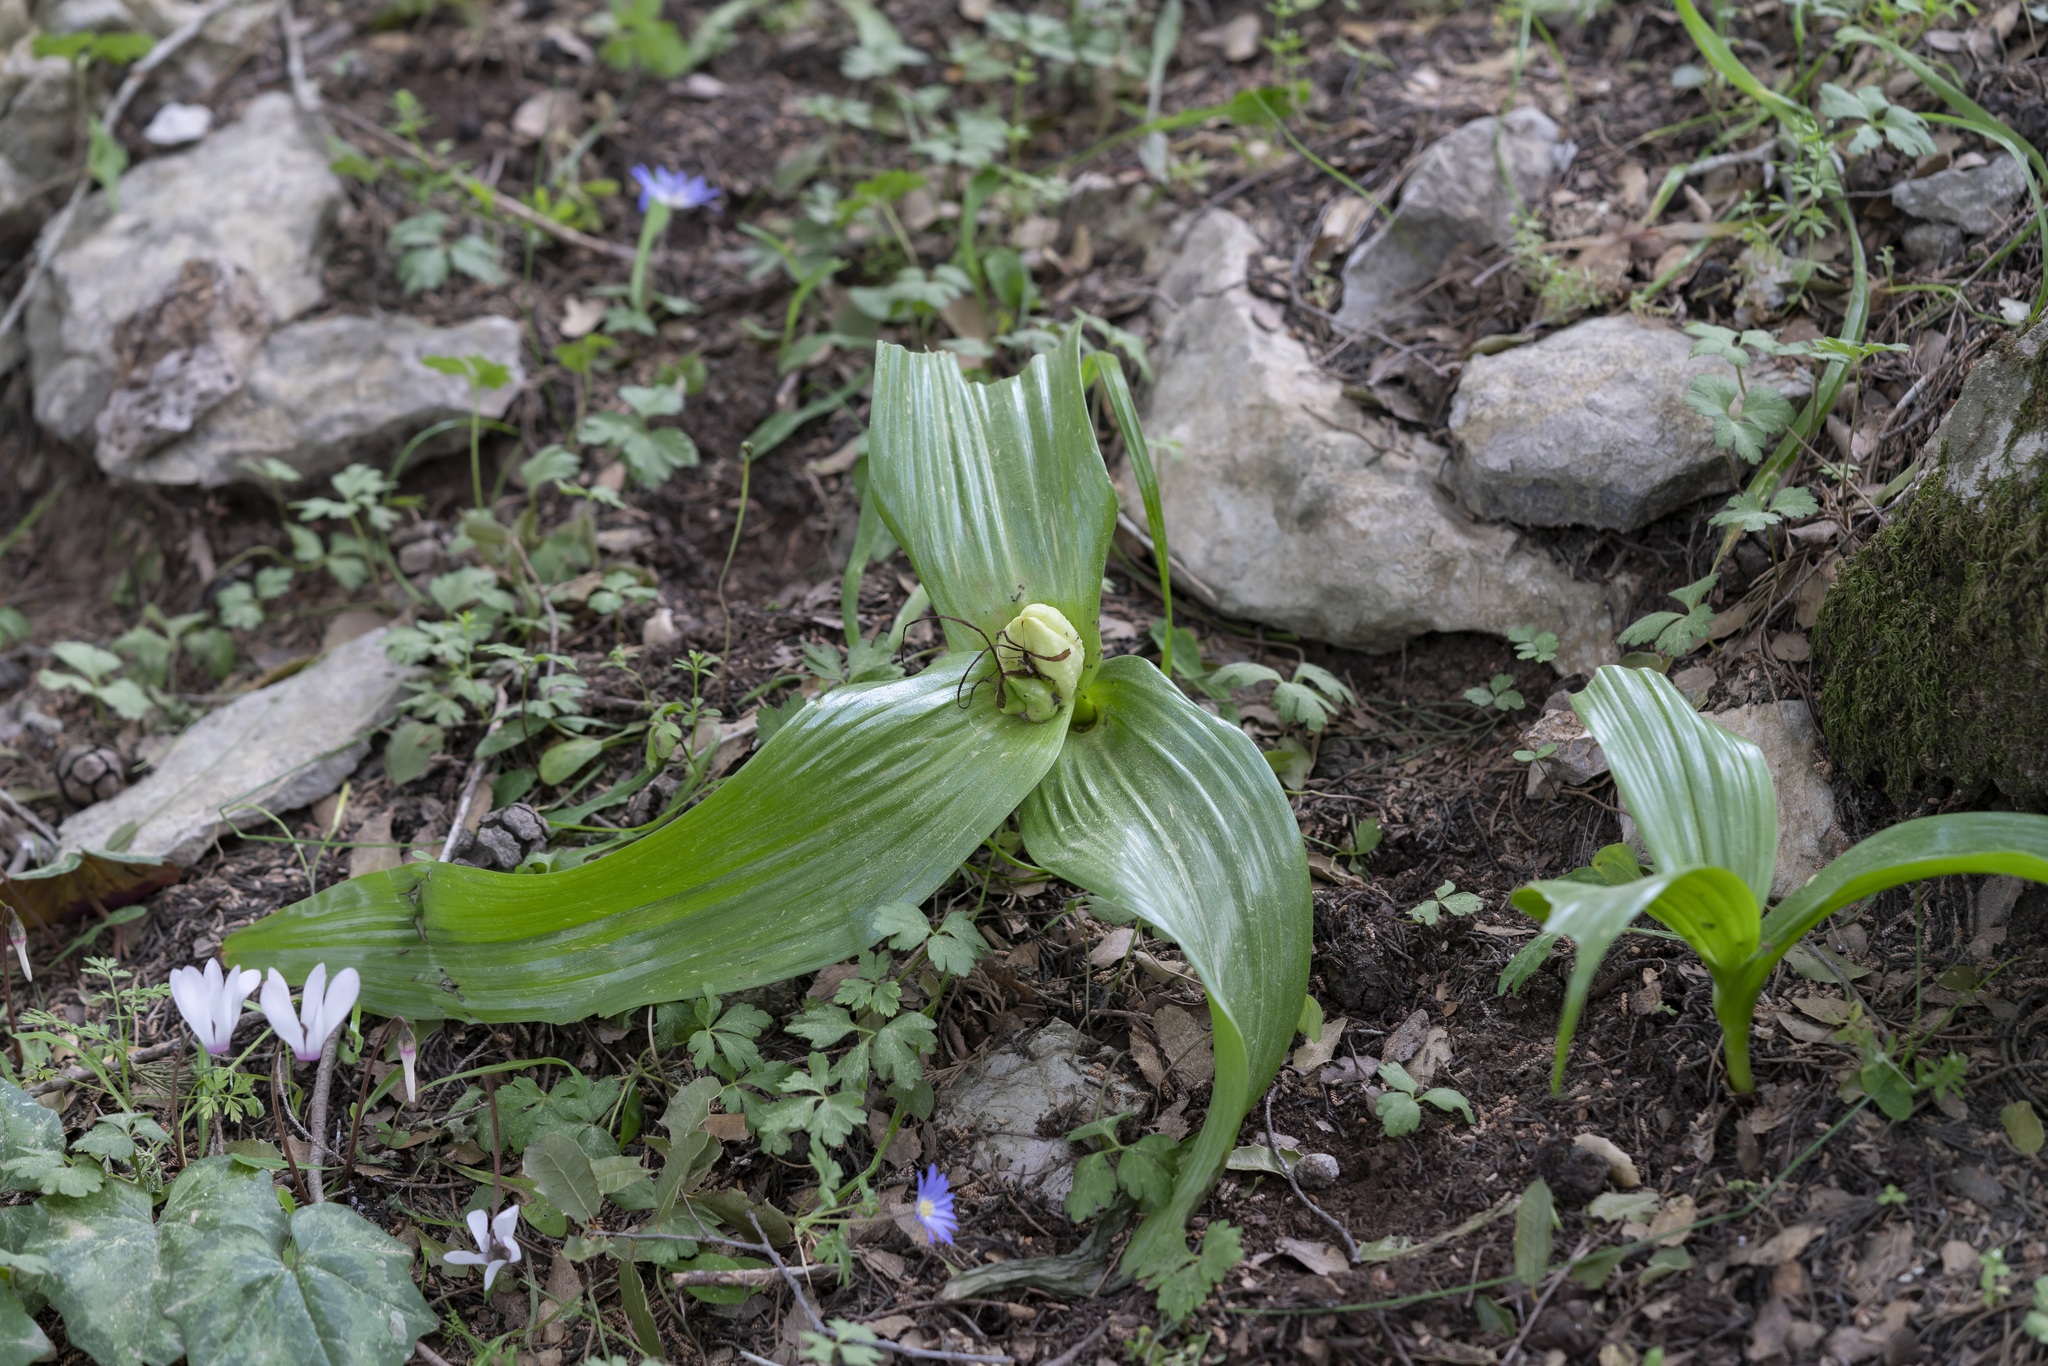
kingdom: Plantae
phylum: Tracheophyta
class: Liliopsida
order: Liliales
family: Colchicaceae
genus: Colchicum
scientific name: Colchicum macrophyllum
